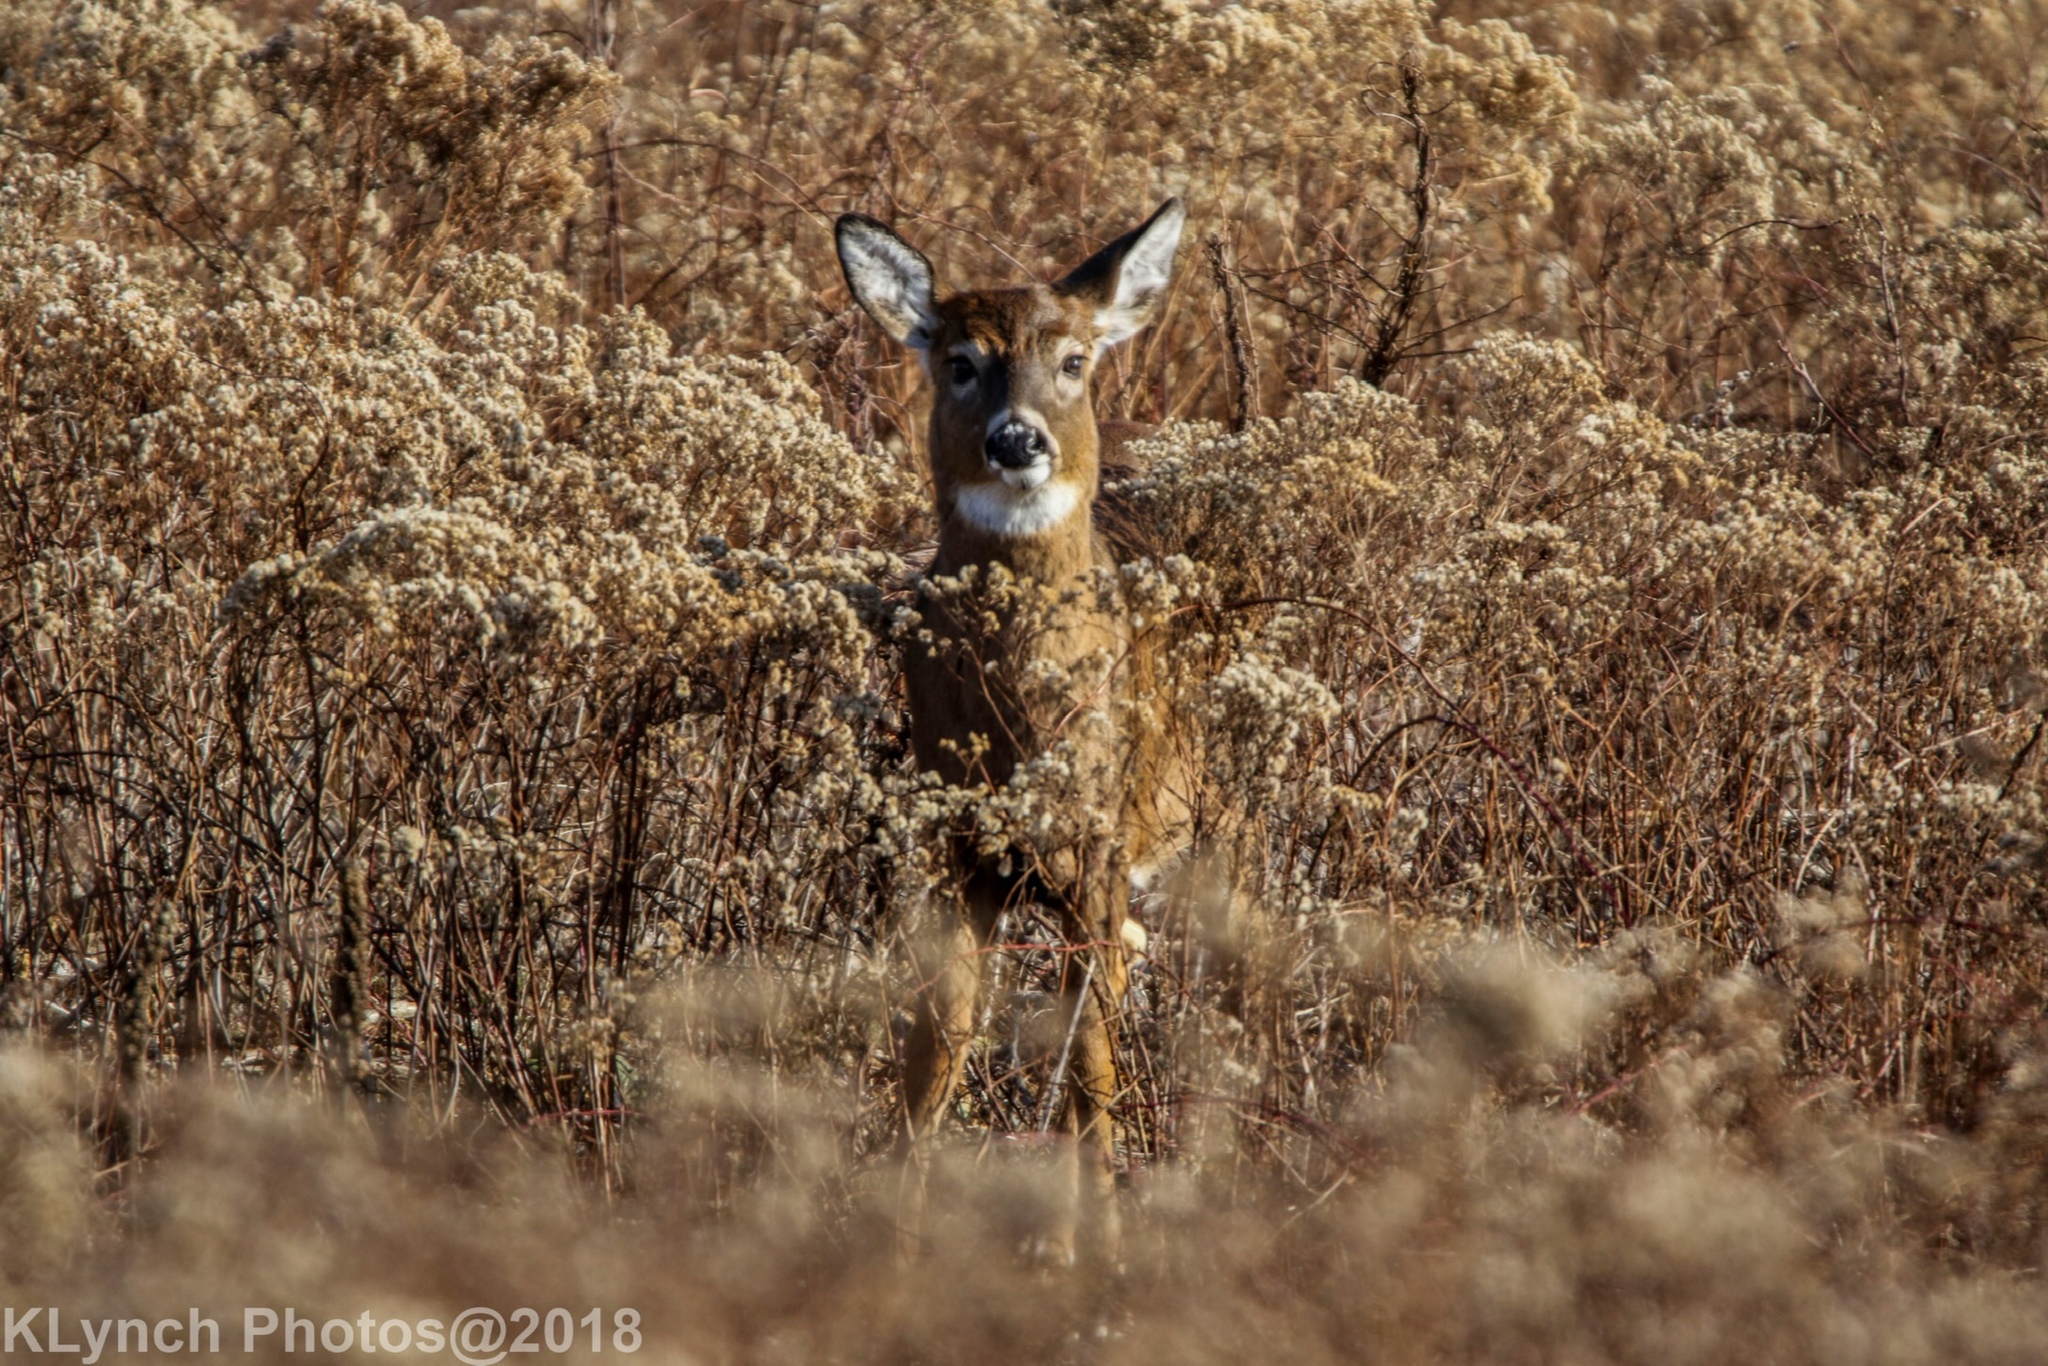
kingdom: Animalia
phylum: Chordata
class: Mammalia
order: Artiodactyla
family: Cervidae
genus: Odocoileus
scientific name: Odocoileus virginianus
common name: White-tailed deer
